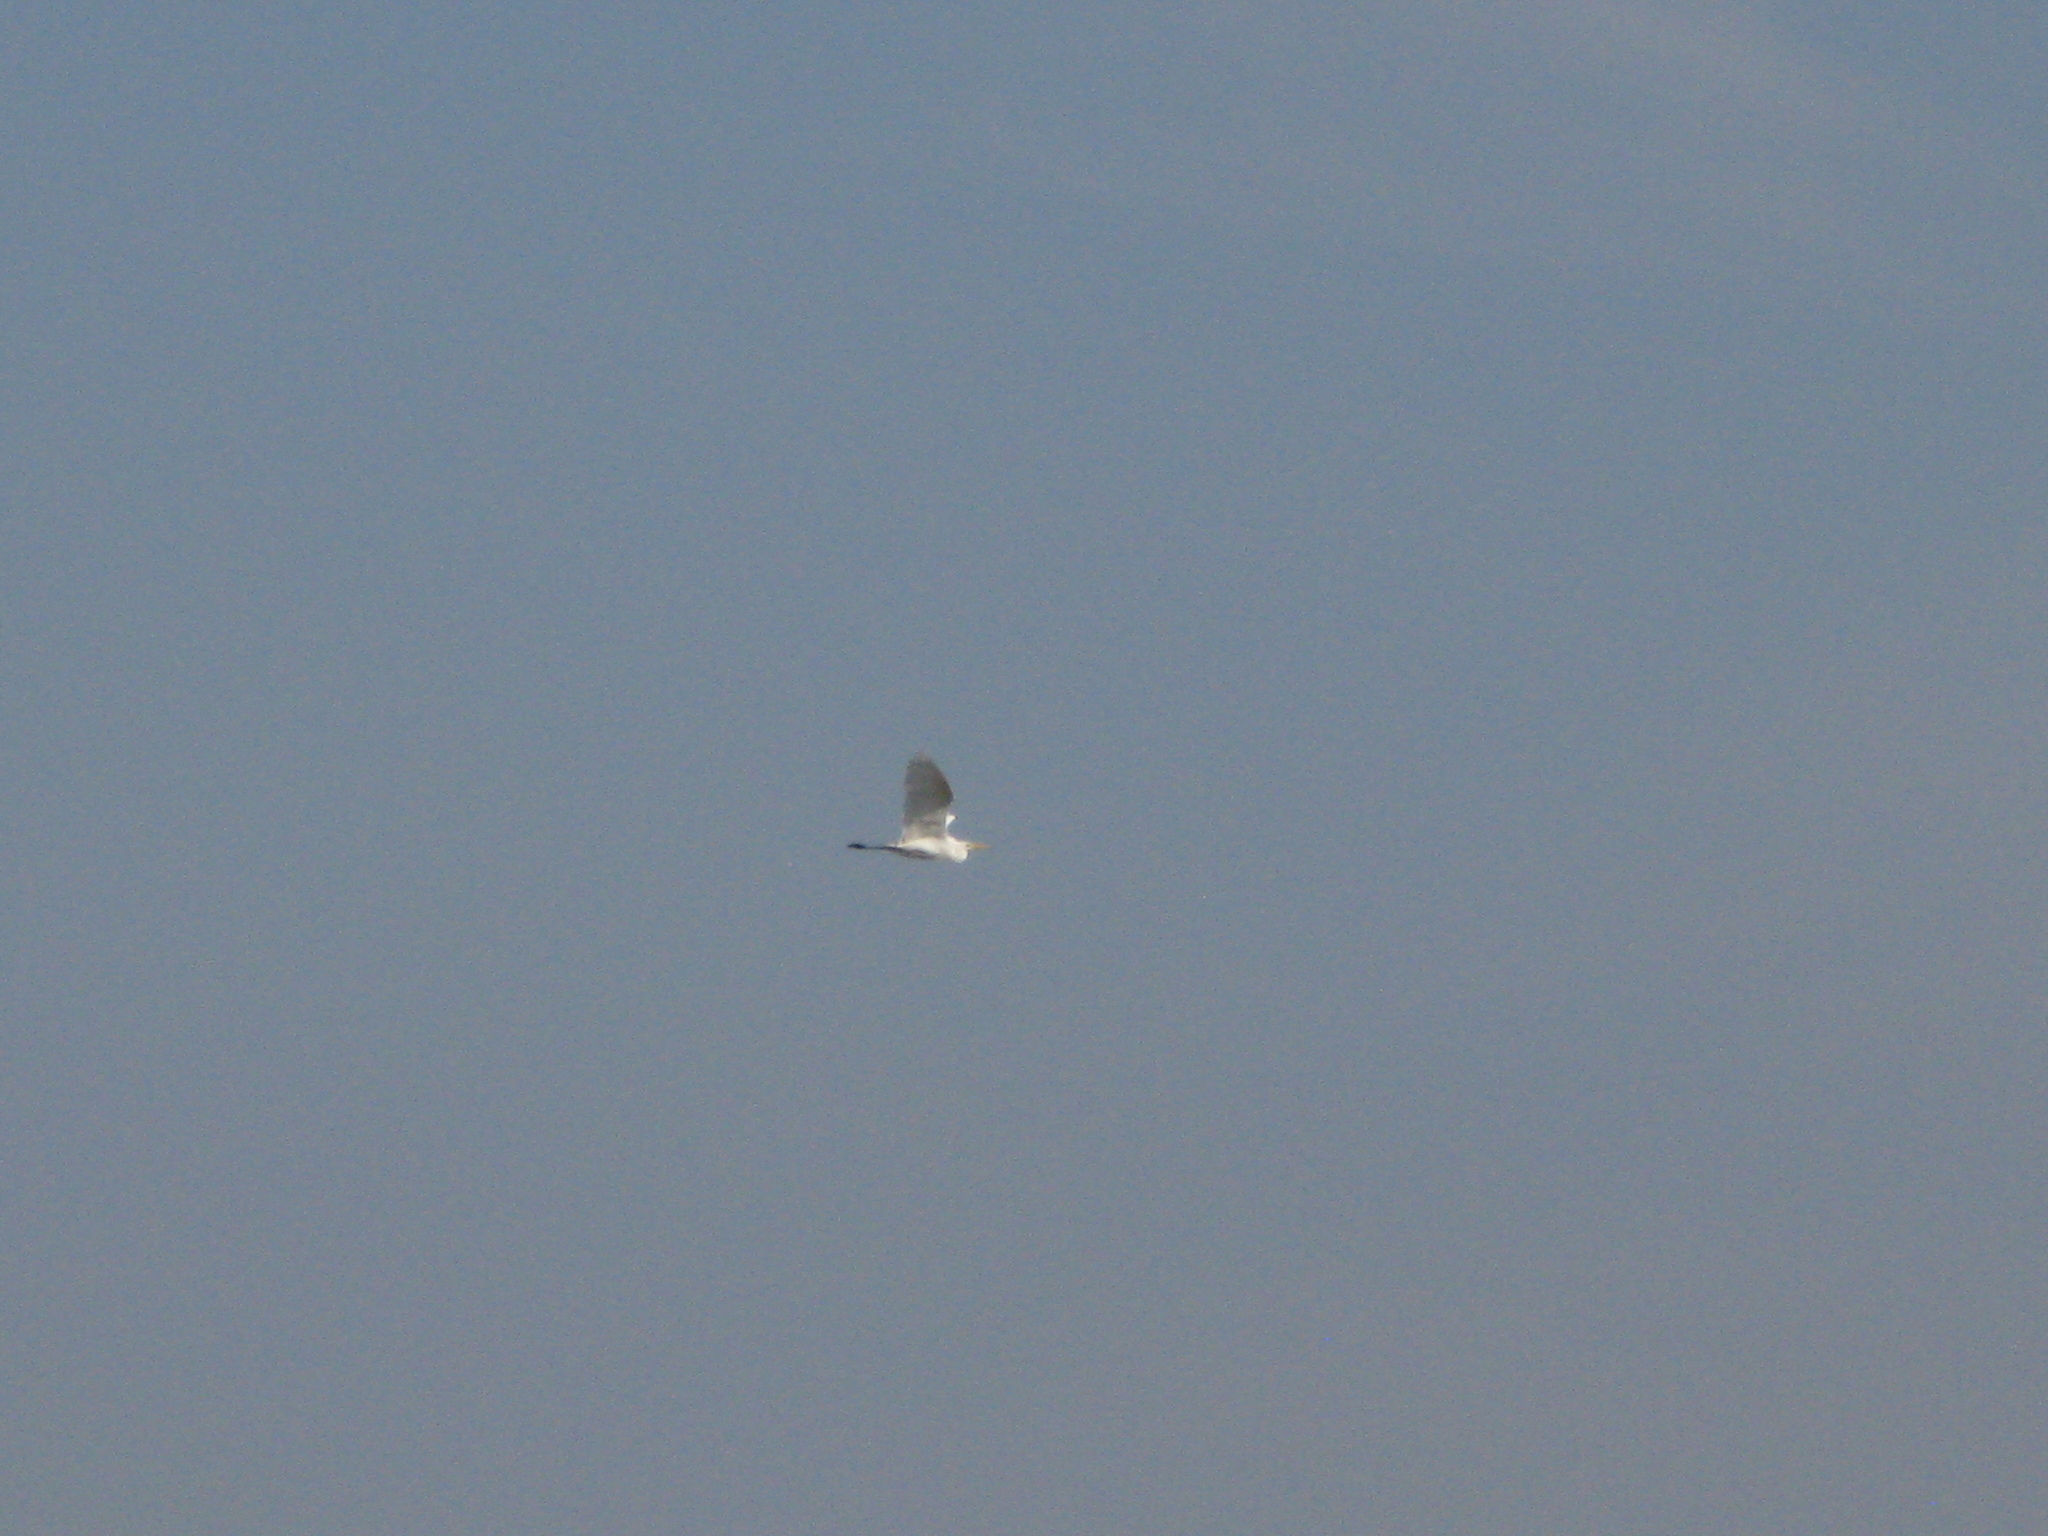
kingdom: Animalia
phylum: Chordata
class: Aves
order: Pelecaniformes
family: Ardeidae
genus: Ardea
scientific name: Ardea alba
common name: Great egret
